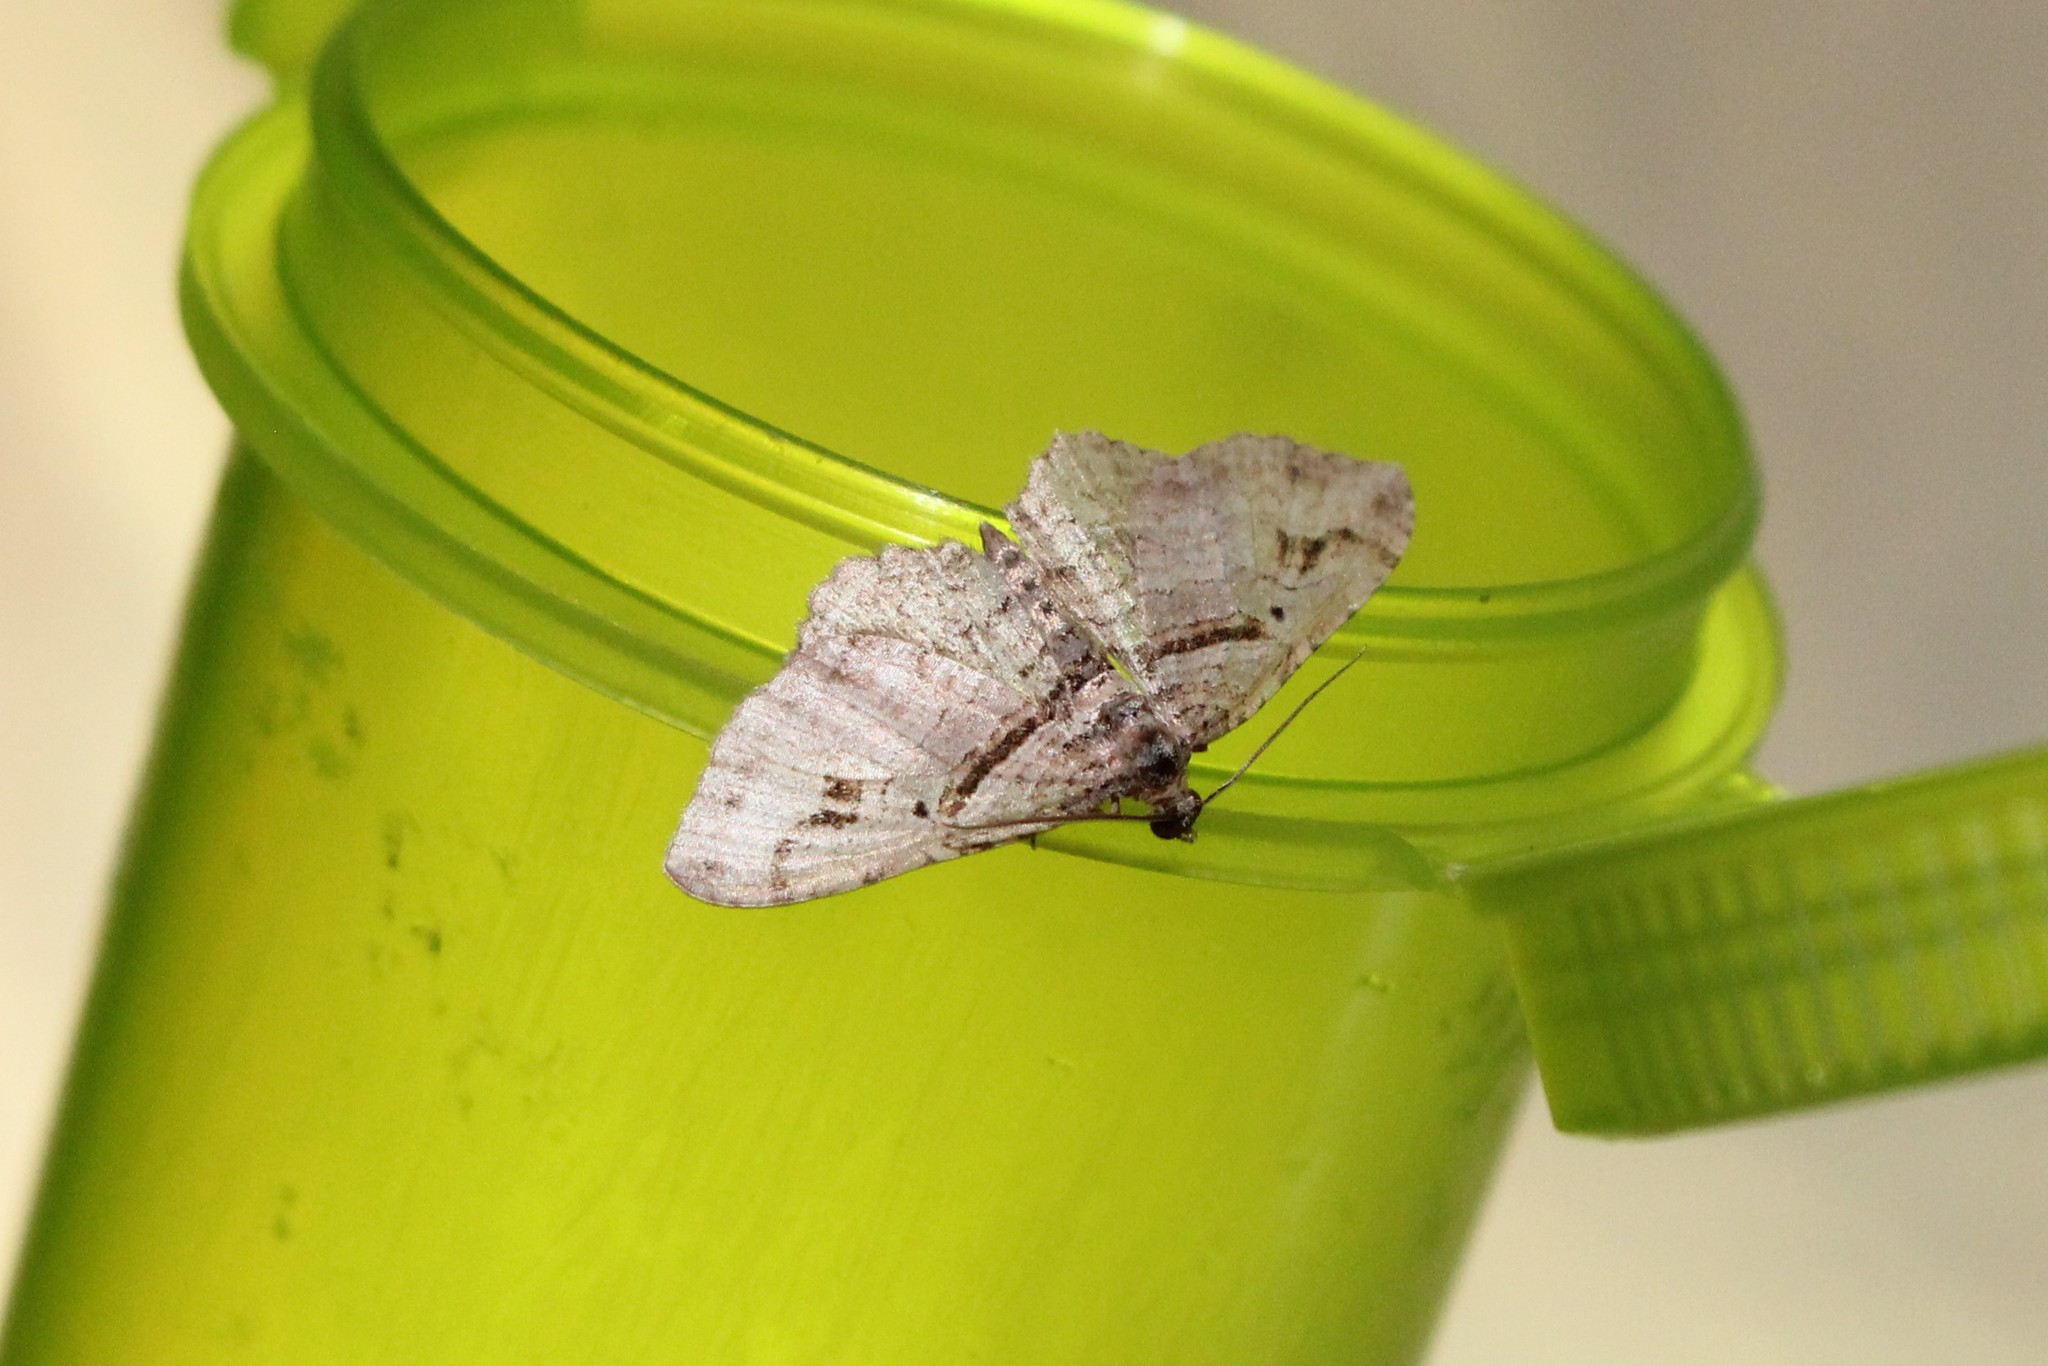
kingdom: Animalia
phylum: Arthropoda
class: Insecta
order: Lepidoptera
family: Geometridae
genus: Costaconvexa
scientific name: Costaconvexa centrostrigaria
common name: Bent-line carpet
